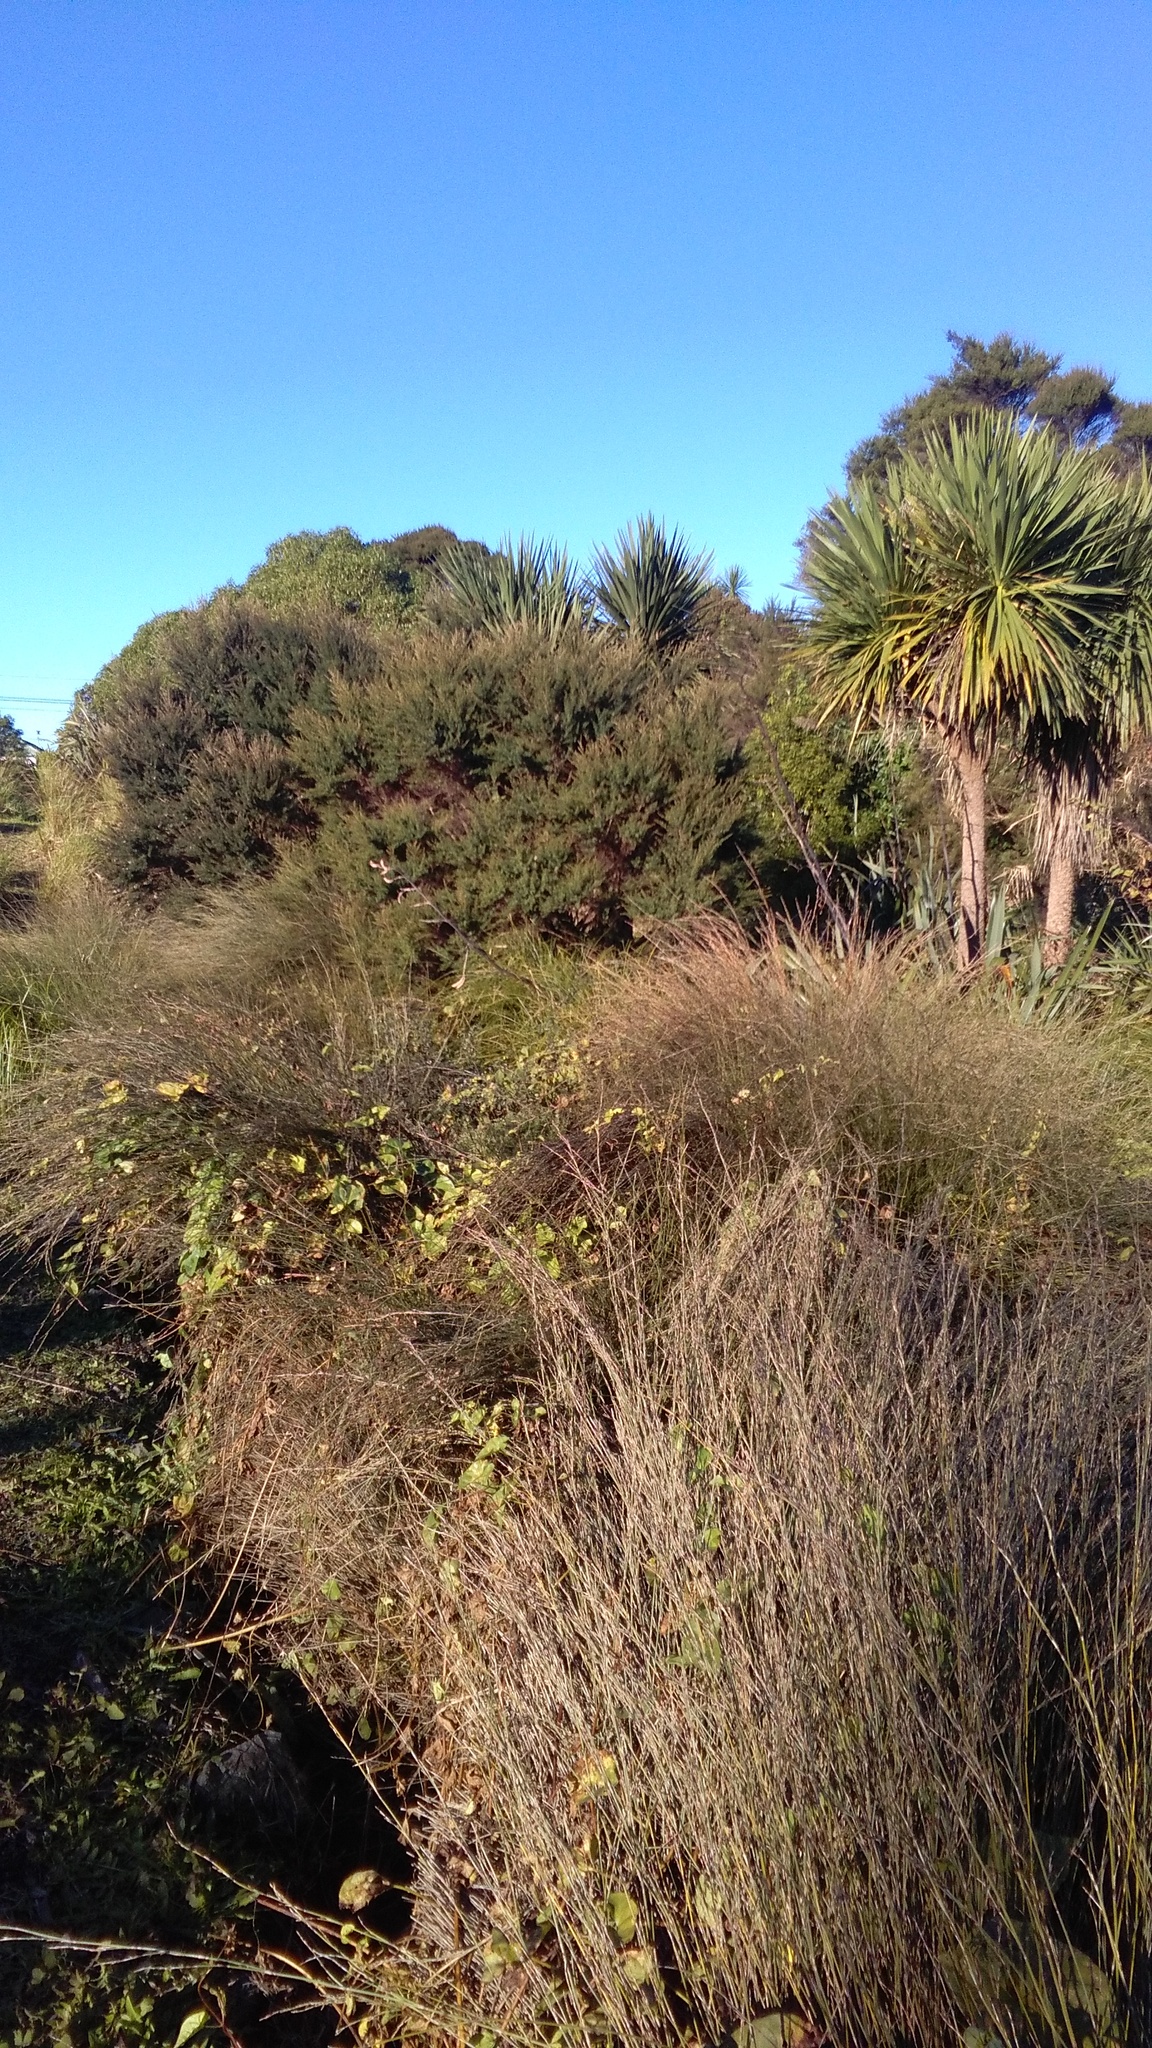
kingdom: Plantae
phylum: Tracheophyta
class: Liliopsida
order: Poales
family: Restionaceae
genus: Apodasmia
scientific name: Apodasmia similis
